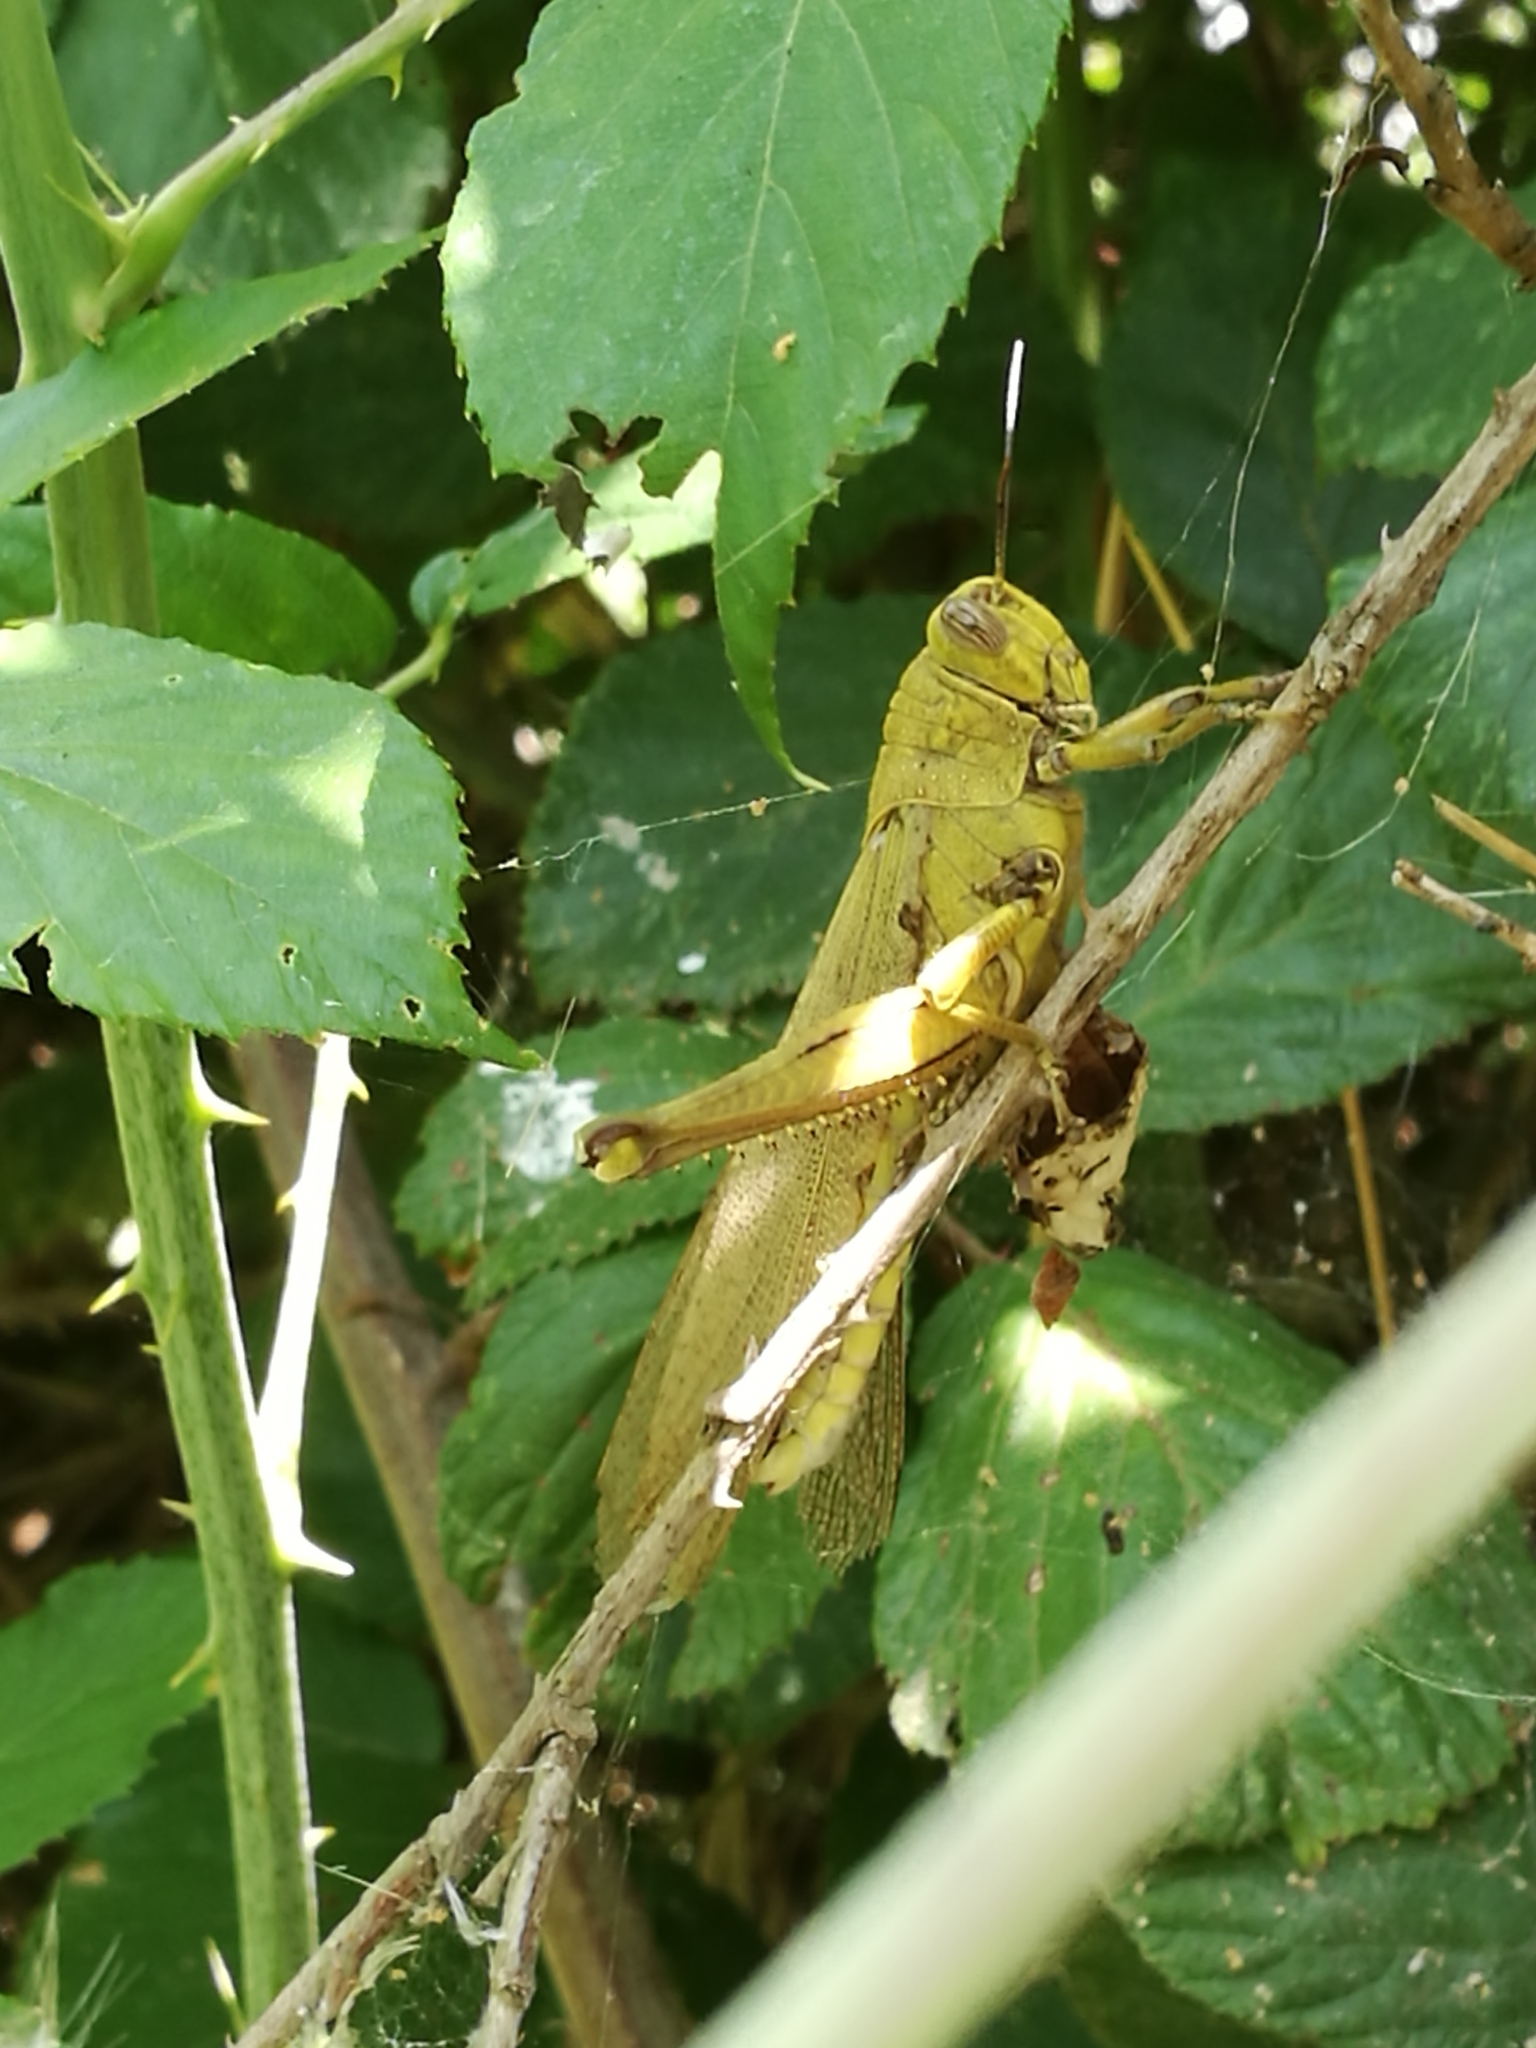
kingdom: Animalia
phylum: Arthropoda
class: Insecta
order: Orthoptera
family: Acrididae
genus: Anacridium
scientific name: Anacridium aegyptium
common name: Egyptian grasshopper
